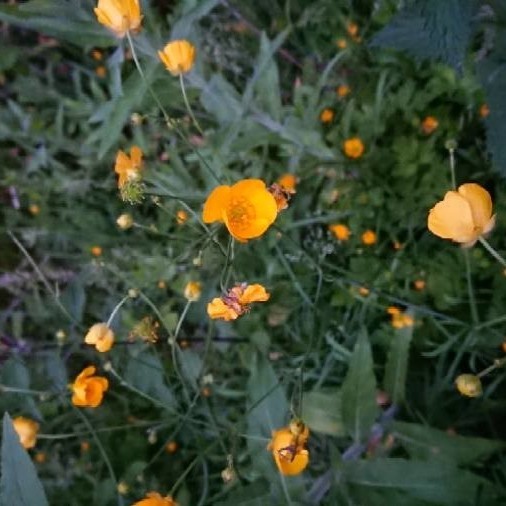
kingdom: Plantae
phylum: Tracheophyta
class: Magnoliopsida
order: Ranunculales
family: Ranunculaceae
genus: Ranunculus
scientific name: Ranunculus acris
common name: Meadow buttercup
